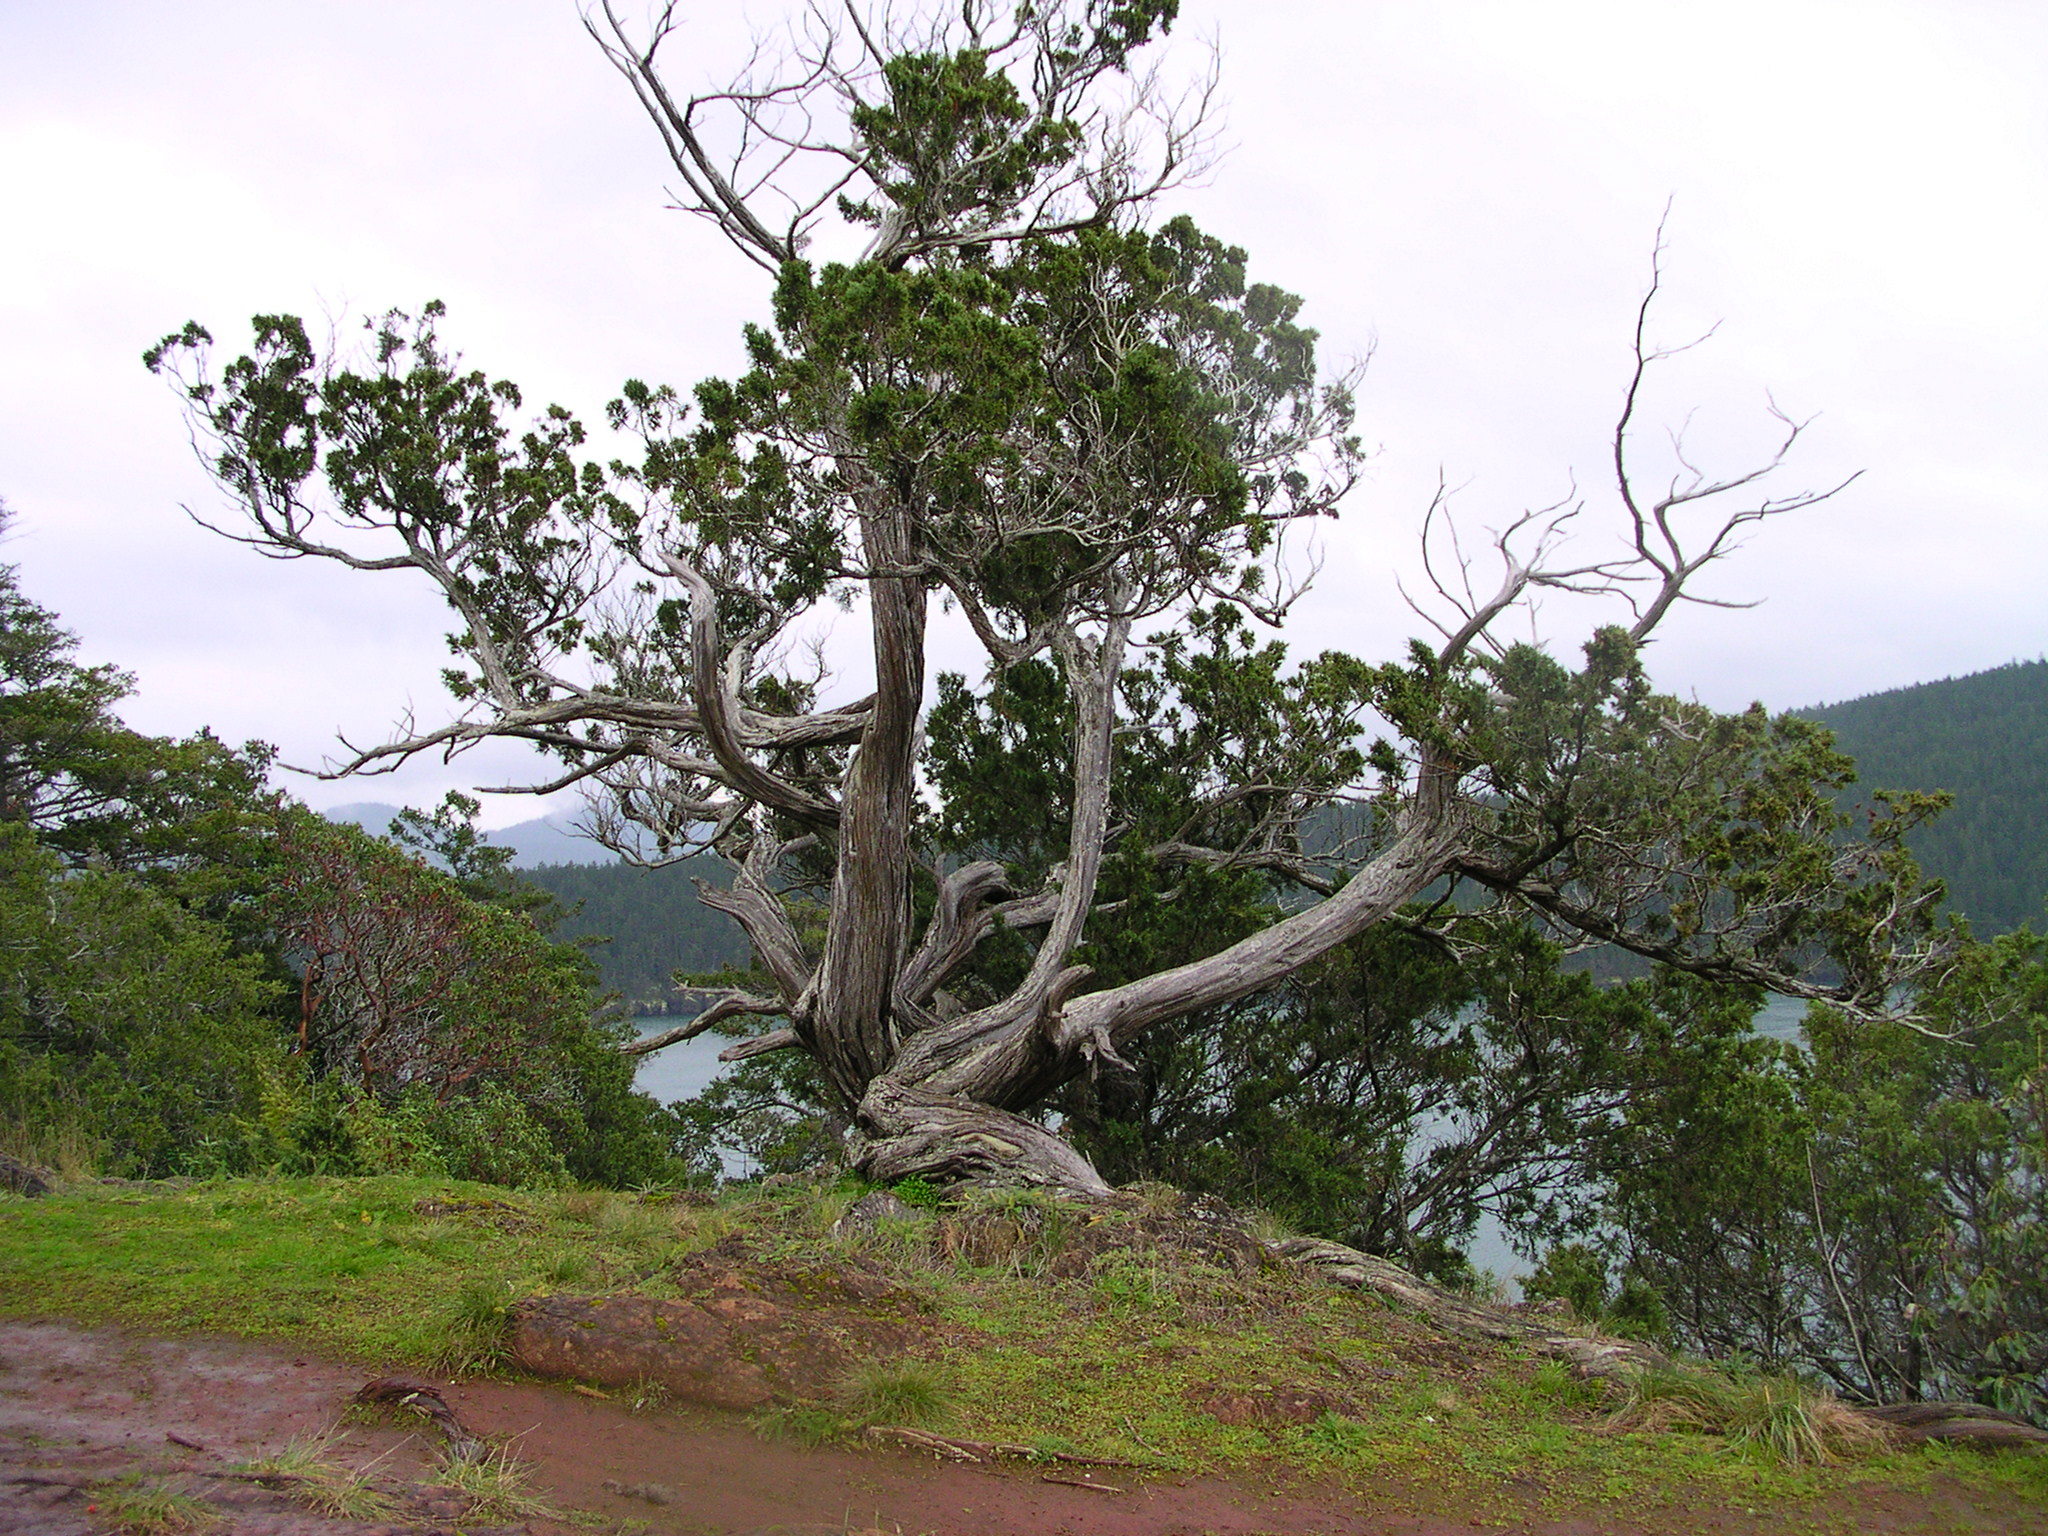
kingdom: Plantae
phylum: Tracheophyta
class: Pinopsida
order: Pinales
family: Cupressaceae
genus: Juniperus
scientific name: Juniperus scopulorum
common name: Rocky mountain juniper
